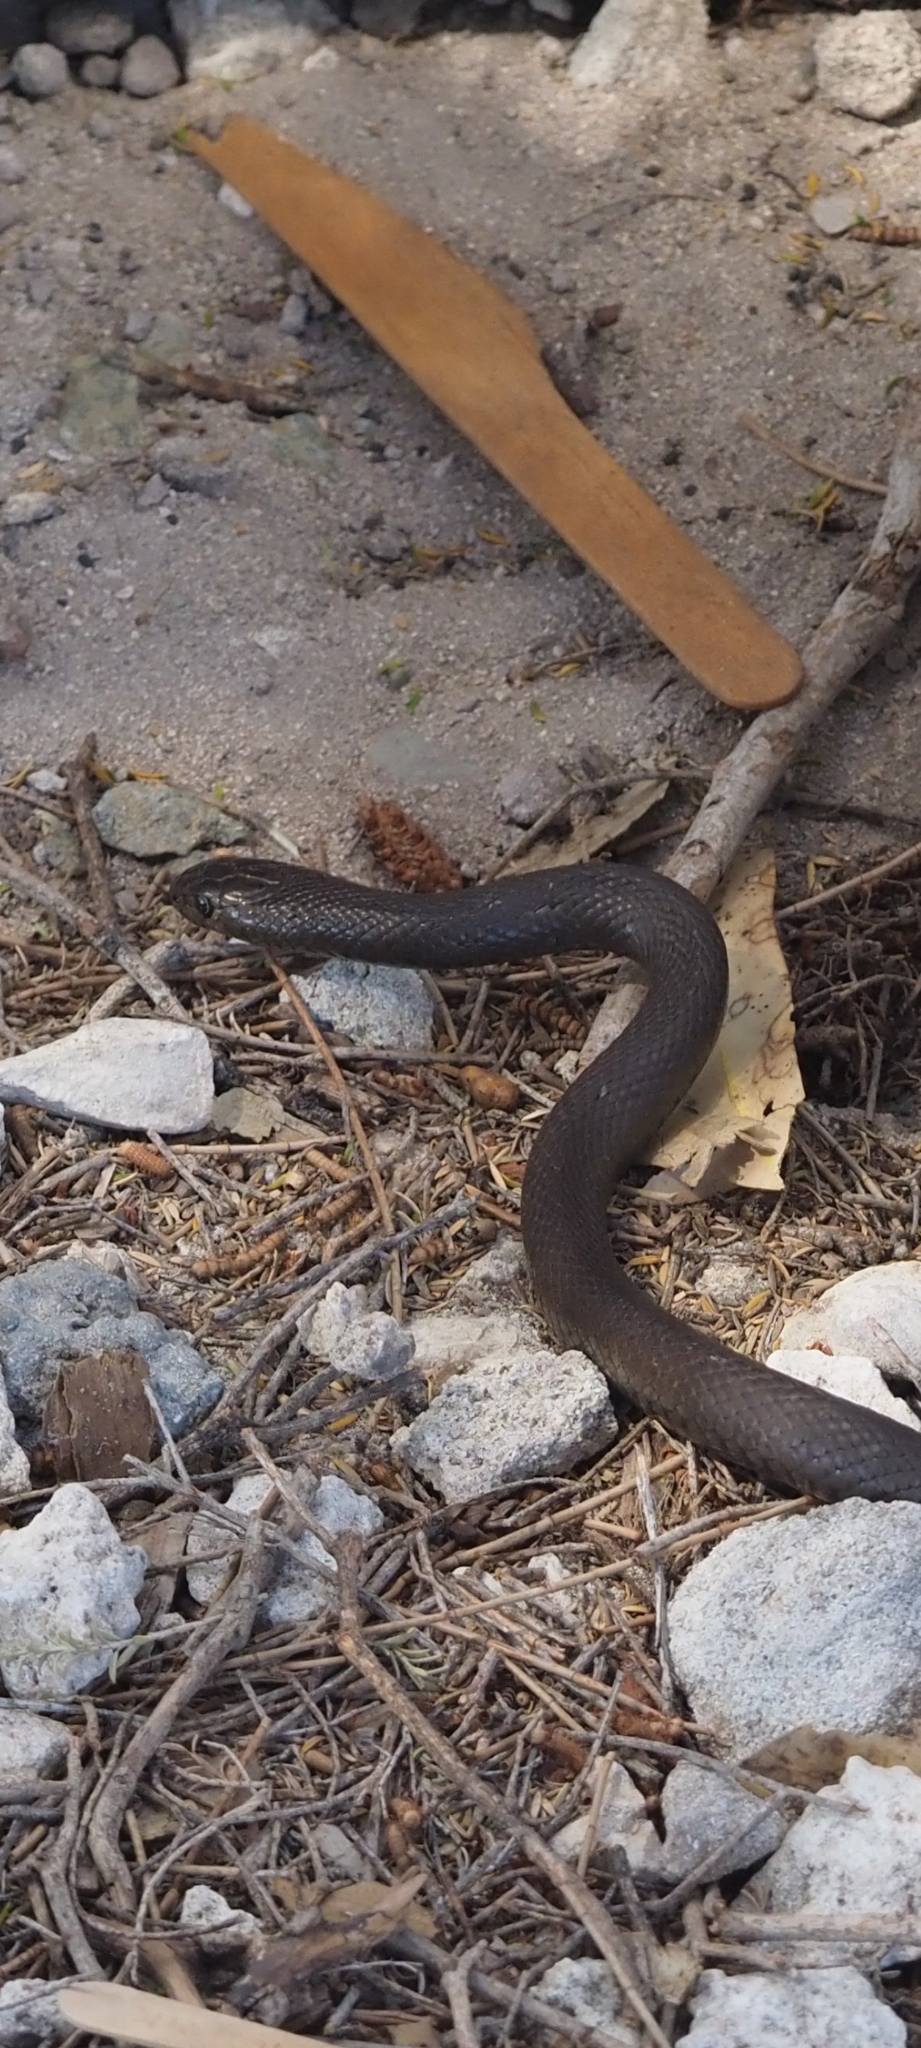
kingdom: Animalia
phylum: Chordata
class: Squamata
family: Elapidae
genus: Pseudonaja
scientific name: Pseudonaja affinis
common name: Dugite
